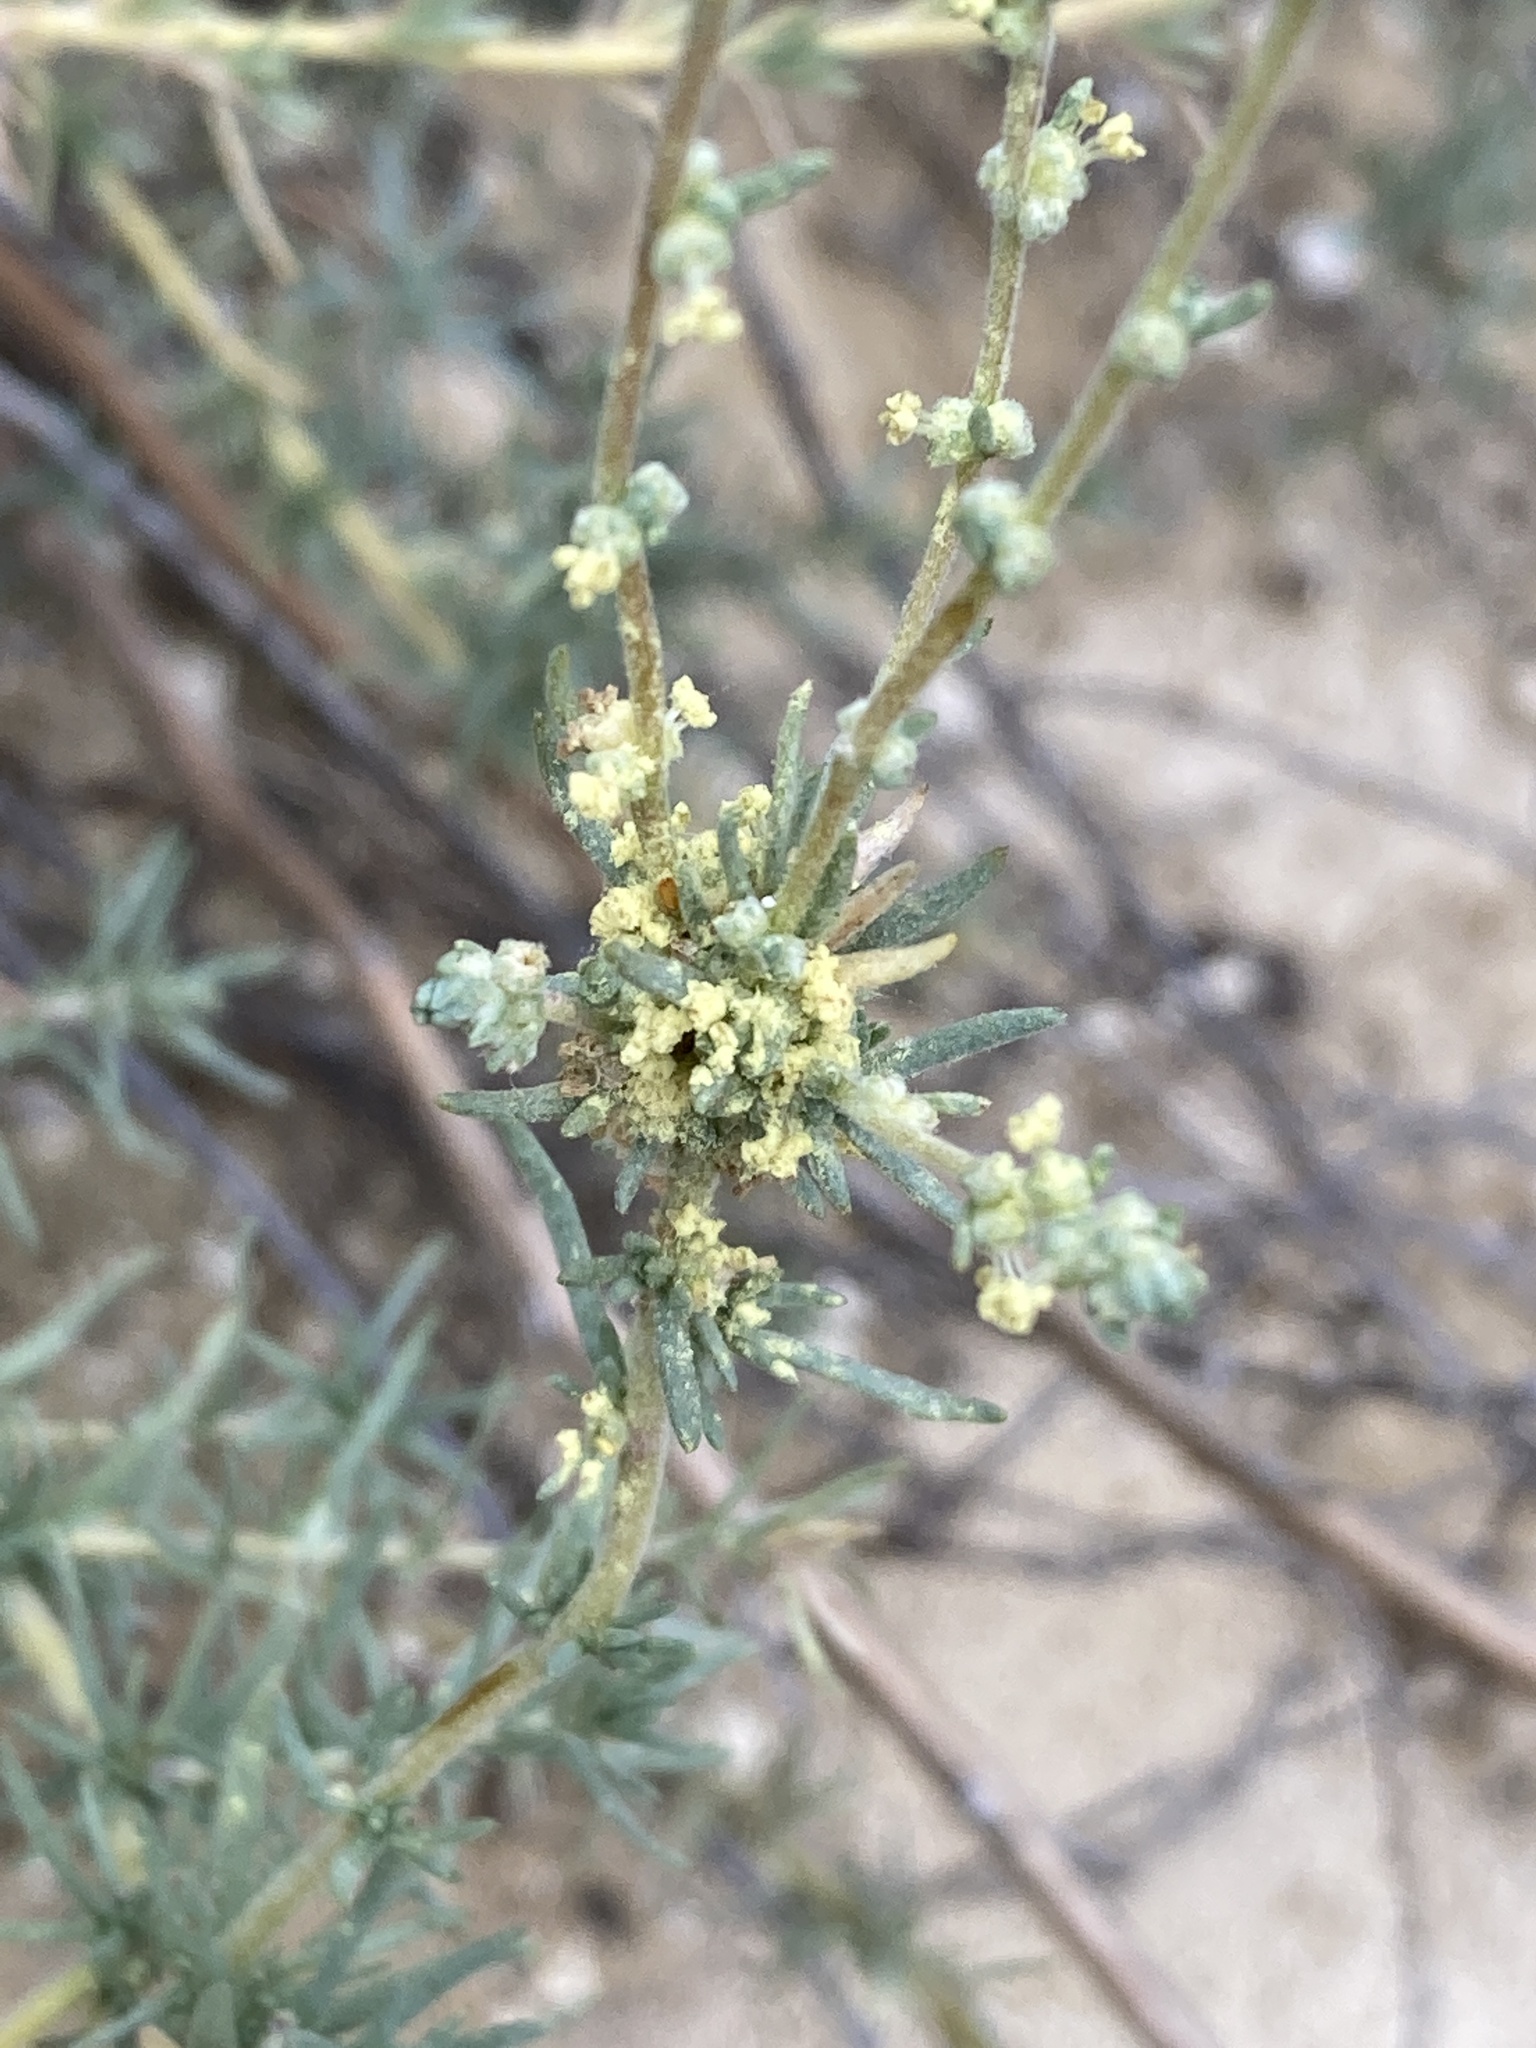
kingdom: Plantae
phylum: Tracheophyta
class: Magnoliopsida
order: Caryophyllales
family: Amaranthaceae
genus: Bassia
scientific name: Bassia prostrata
